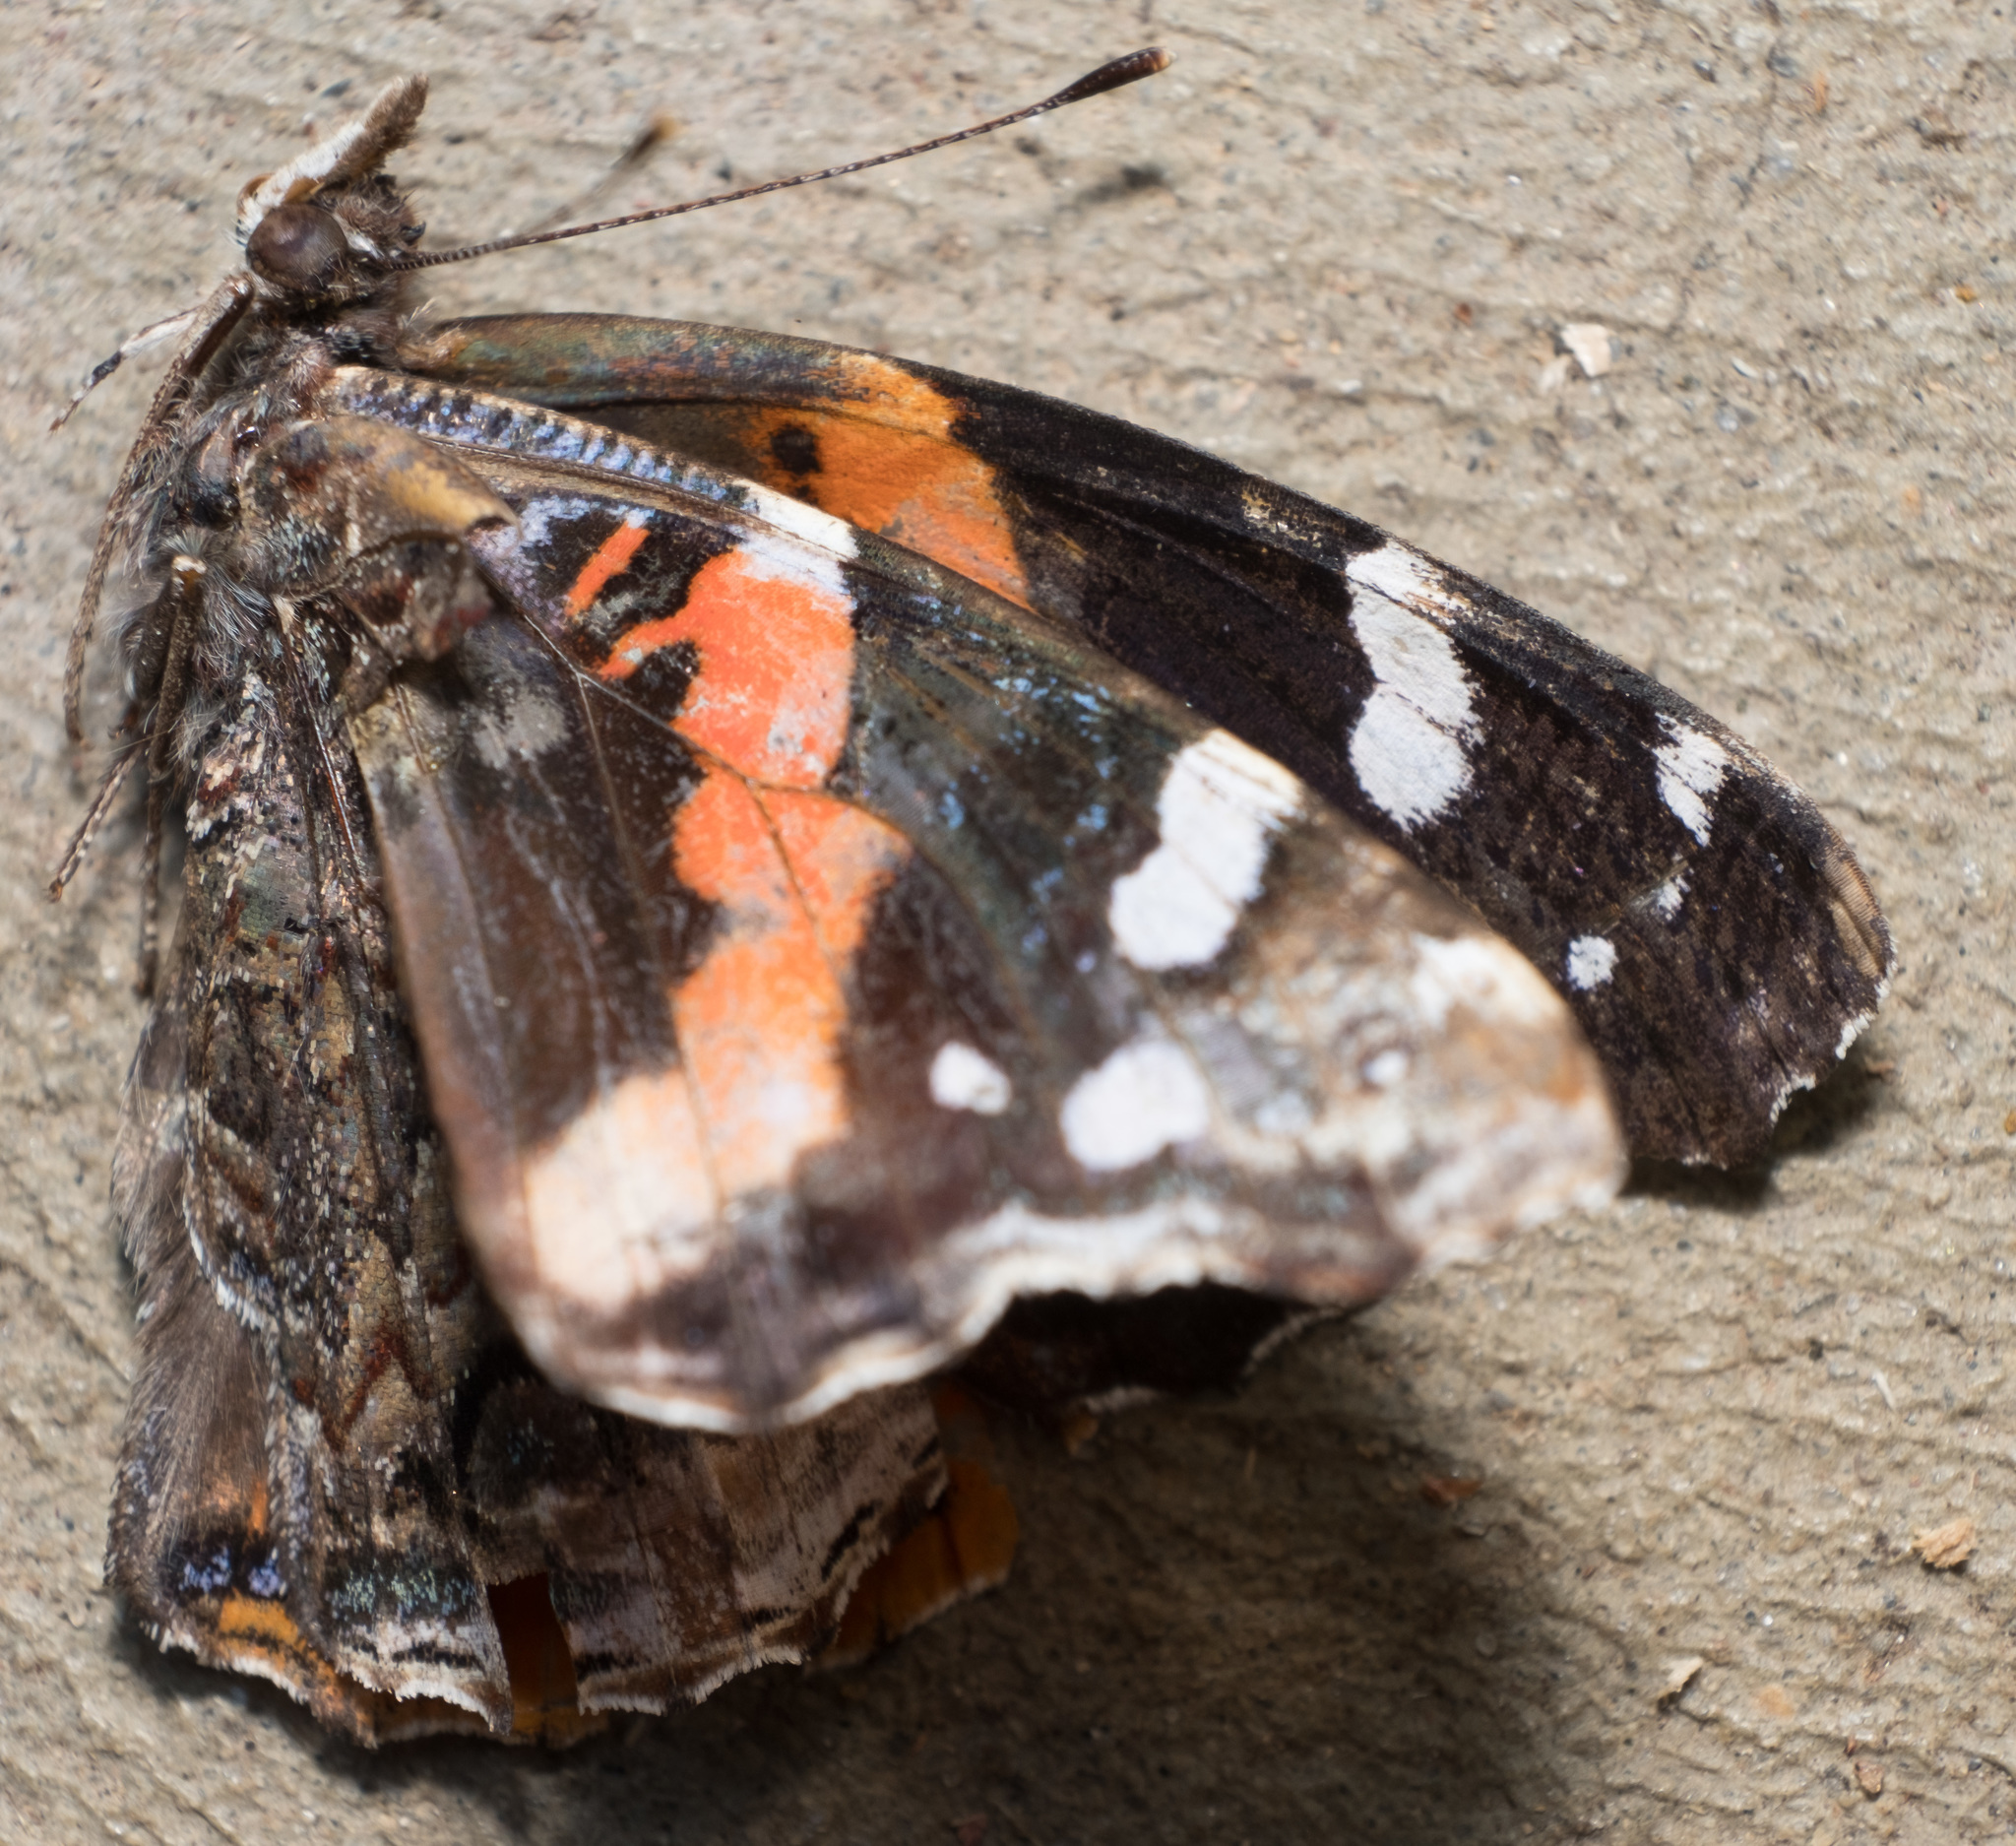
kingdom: Animalia
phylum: Arthropoda
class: Insecta
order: Lepidoptera
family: Nymphalidae
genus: Vanessa
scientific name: Vanessa atalanta
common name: Red admiral
